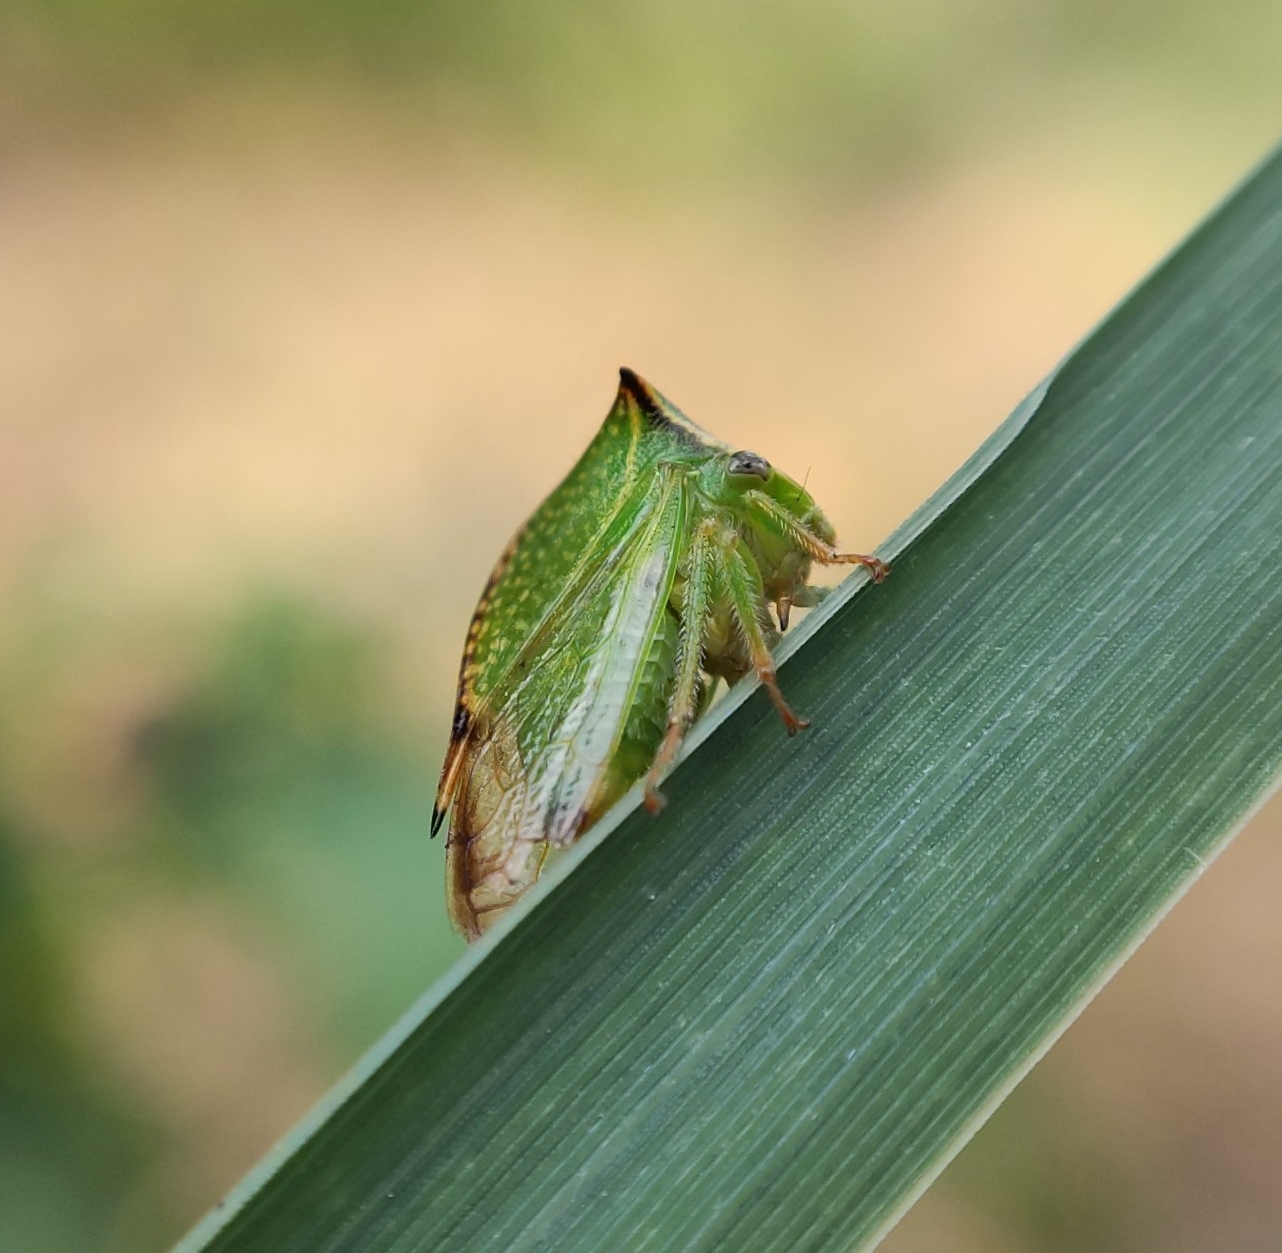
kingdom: Animalia
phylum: Arthropoda
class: Insecta
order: Hemiptera
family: Membracidae
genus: Stictocephala
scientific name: Stictocephala bisonia
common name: American buffalo treehopper
